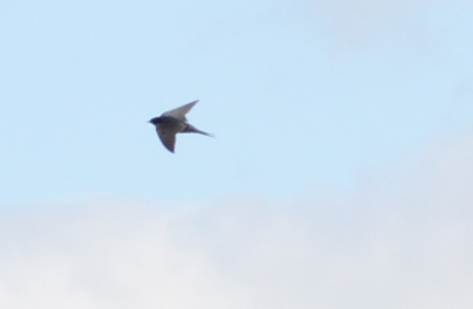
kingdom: Animalia
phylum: Chordata
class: Aves
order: Passeriformes
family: Hirundinidae
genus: Hirundo
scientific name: Hirundo rustica
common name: Barn swallow
